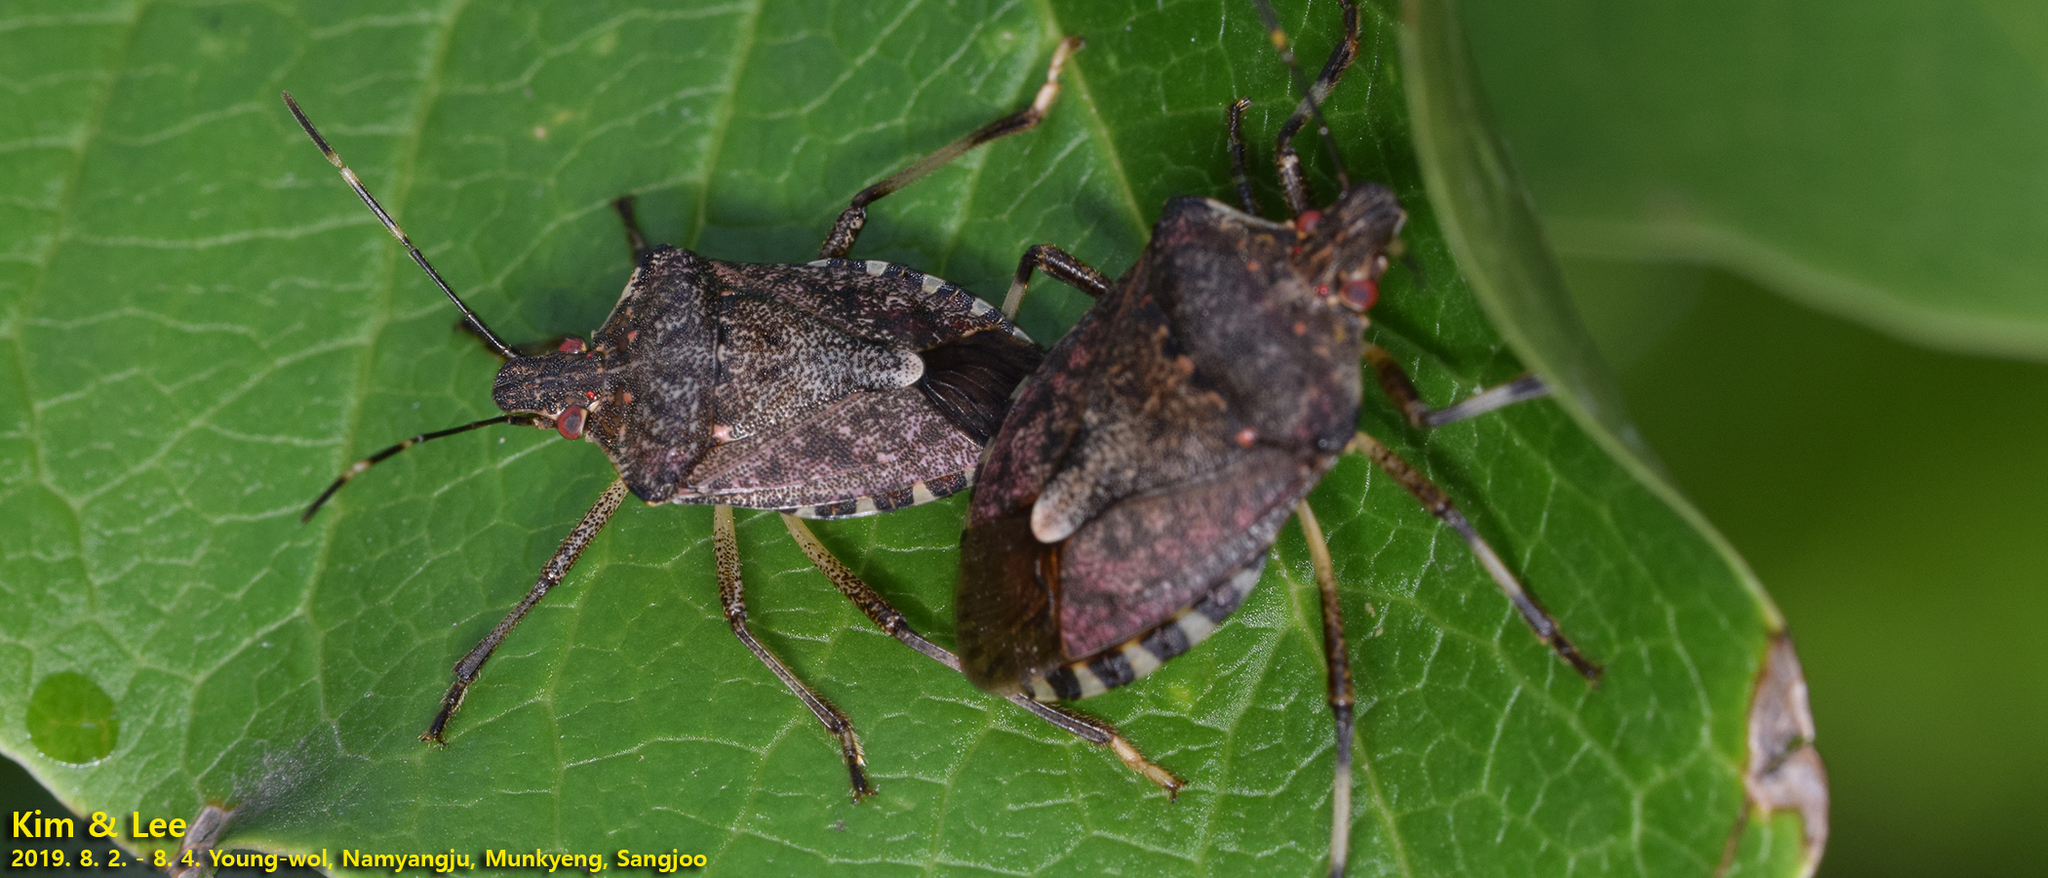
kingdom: Animalia
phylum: Arthropoda
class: Insecta
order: Hemiptera
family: Pentatomidae
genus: Halyomorpha
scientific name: Halyomorpha halys
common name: Brown marmorated stink bug
